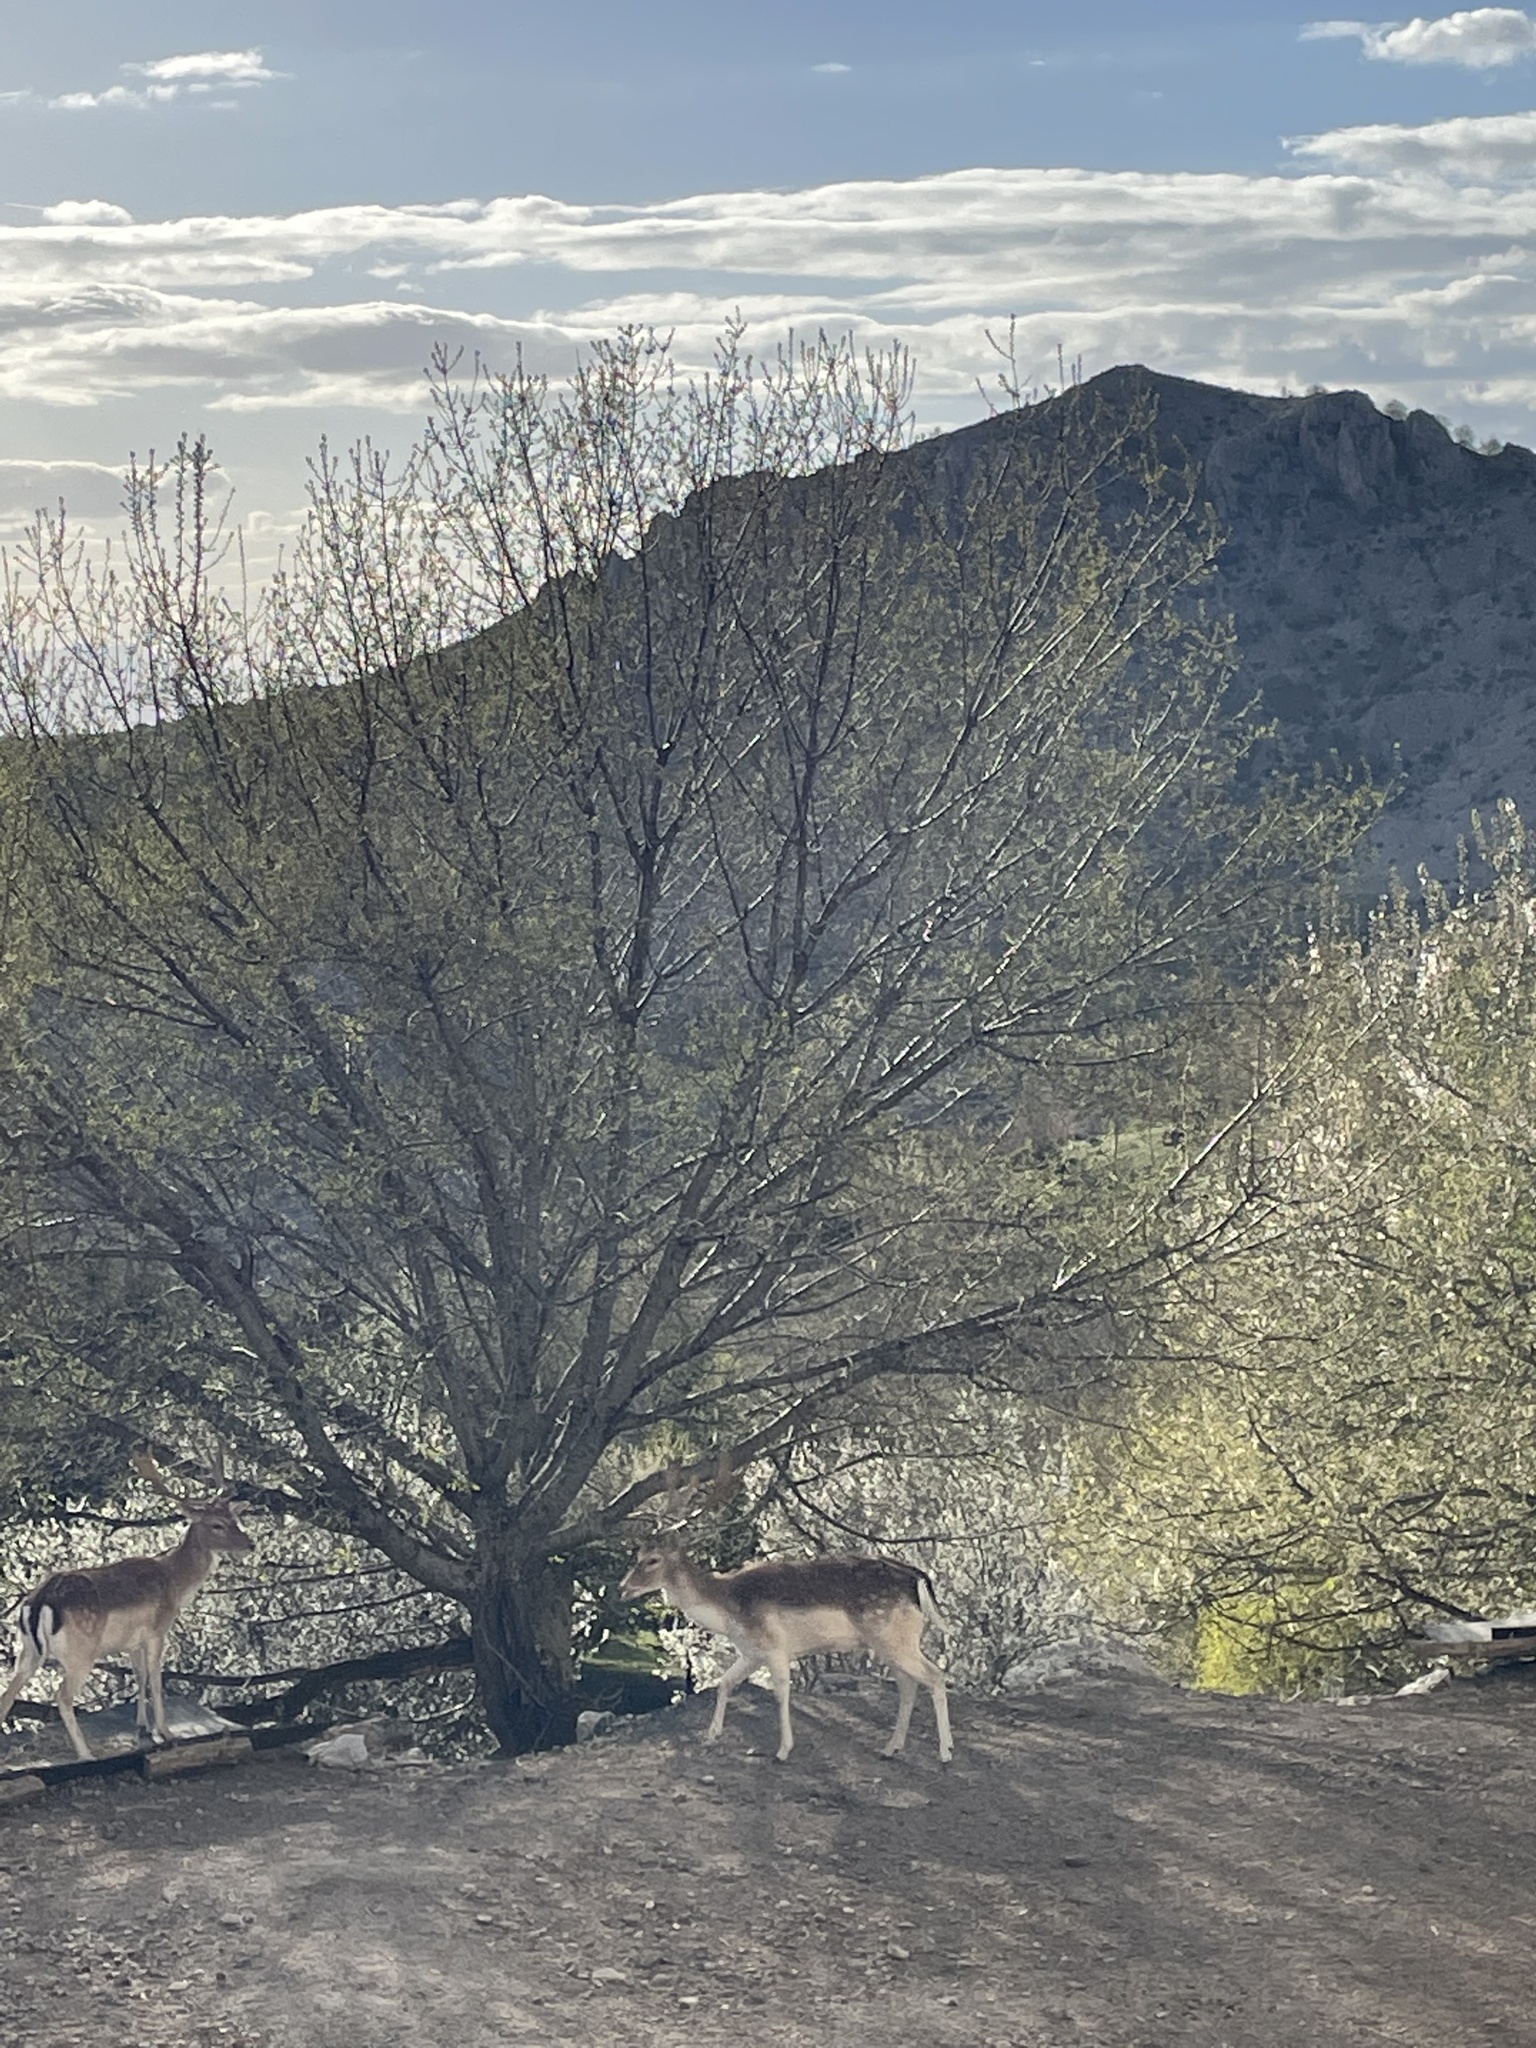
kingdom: Animalia
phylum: Chordata
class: Mammalia
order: Artiodactyla
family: Cervidae
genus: Dama
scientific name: Dama dama
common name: Fallow deer
